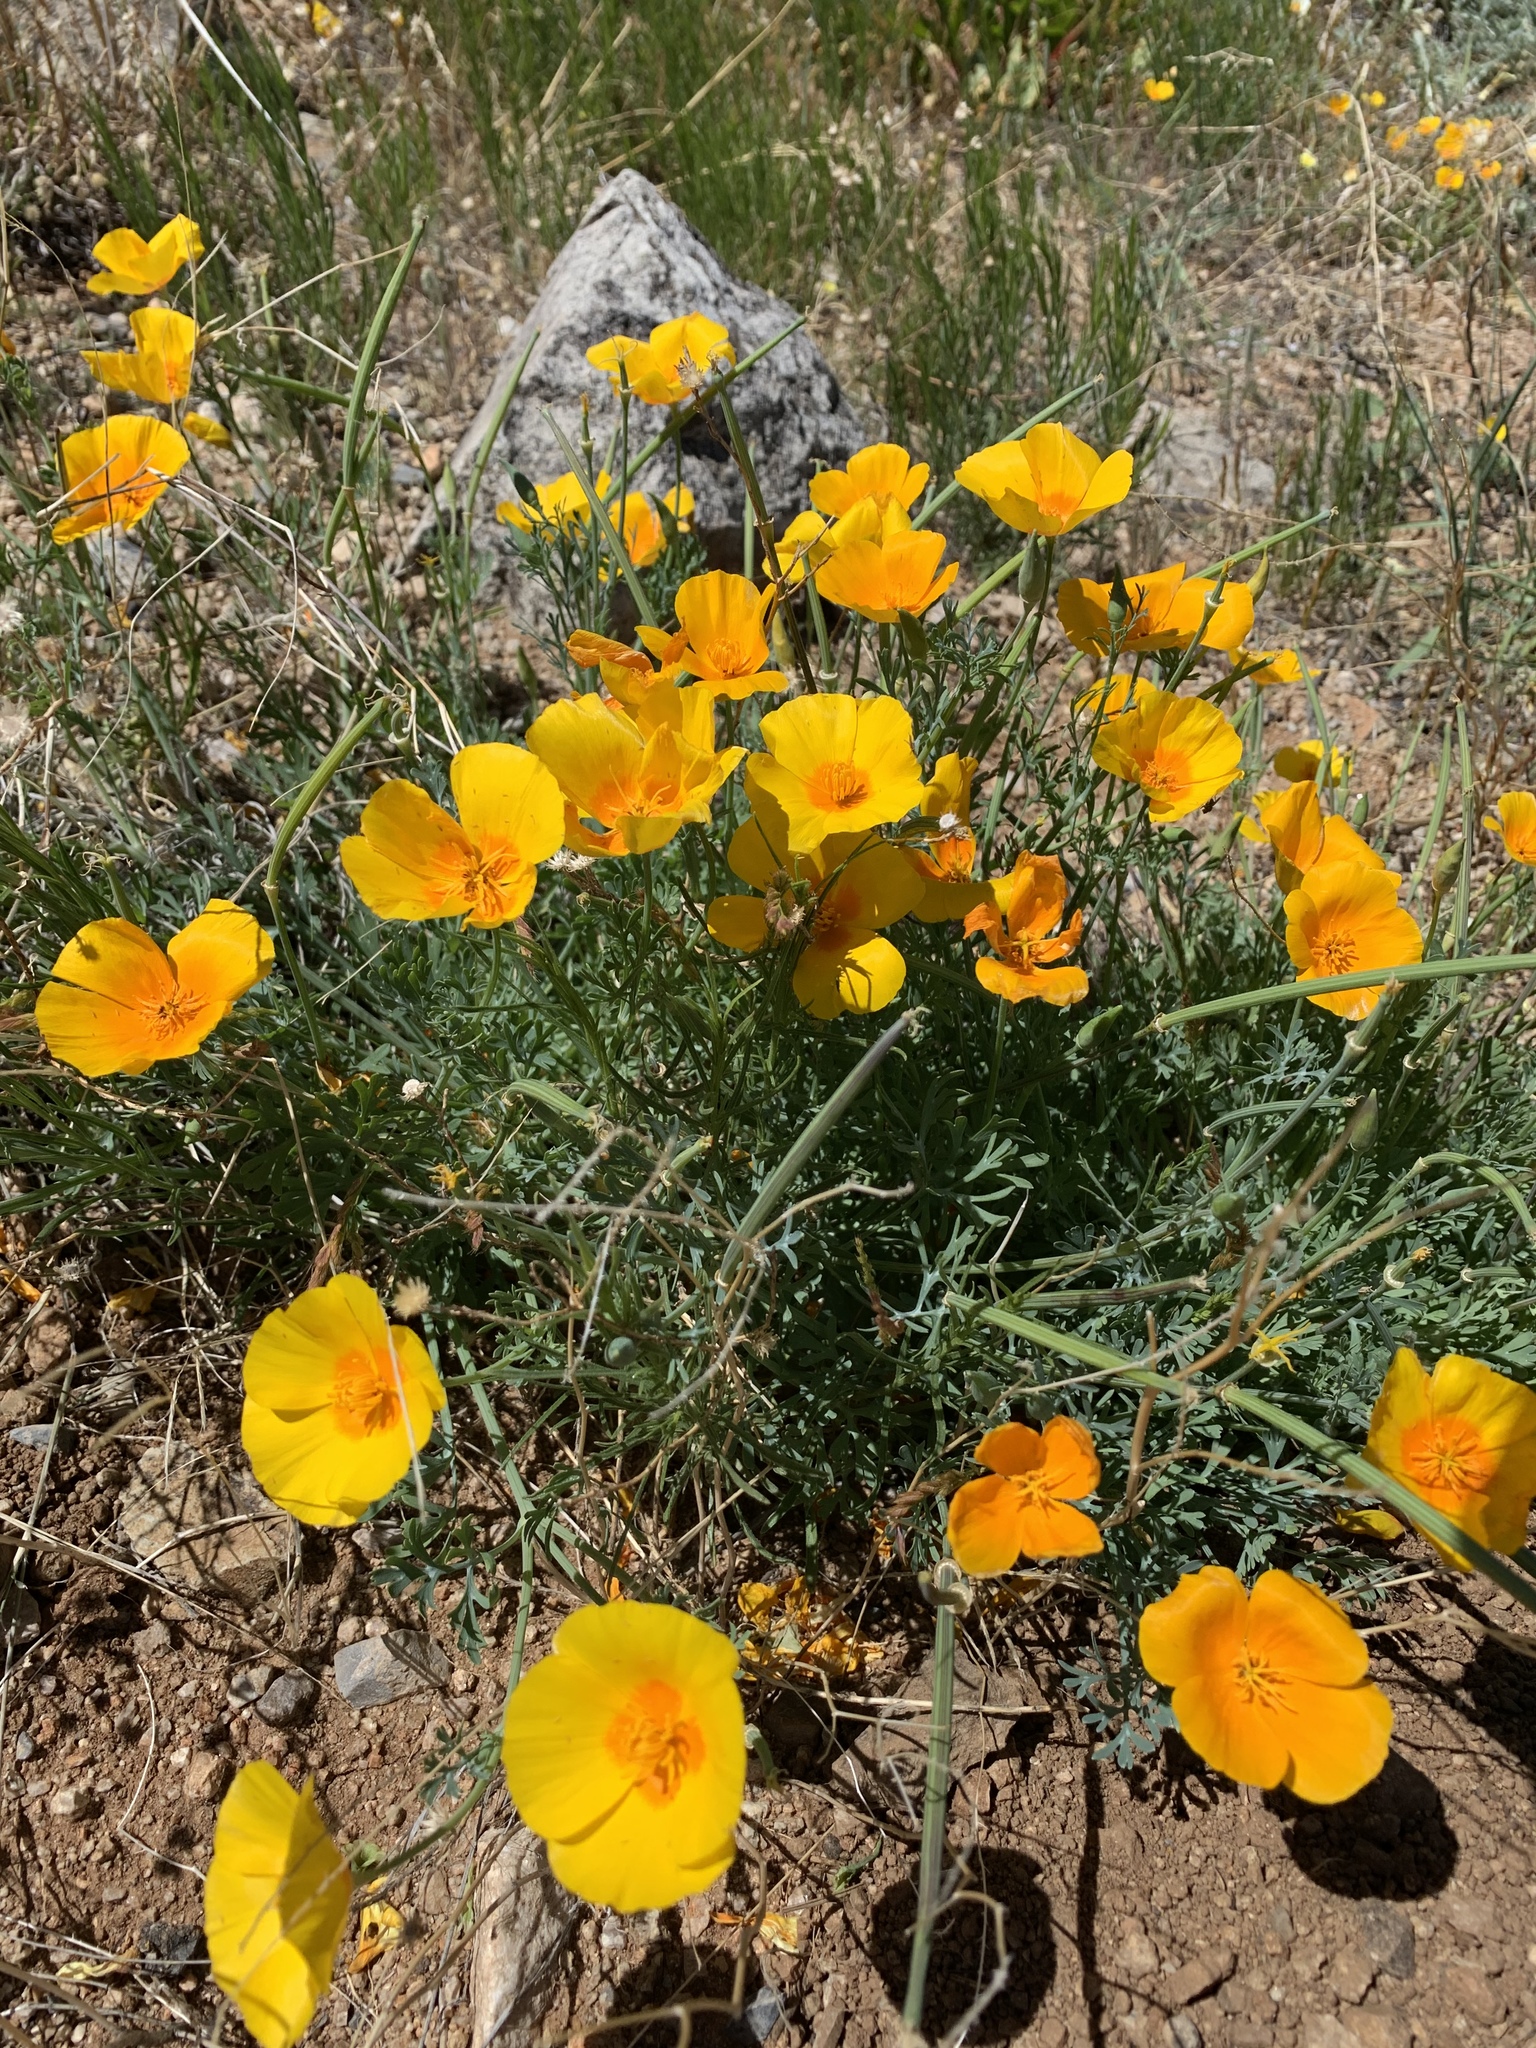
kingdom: Plantae
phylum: Tracheophyta
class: Magnoliopsida
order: Ranunculales
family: Papaveraceae
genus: Eschscholzia
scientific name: Eschscholzia californica
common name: California poppy
